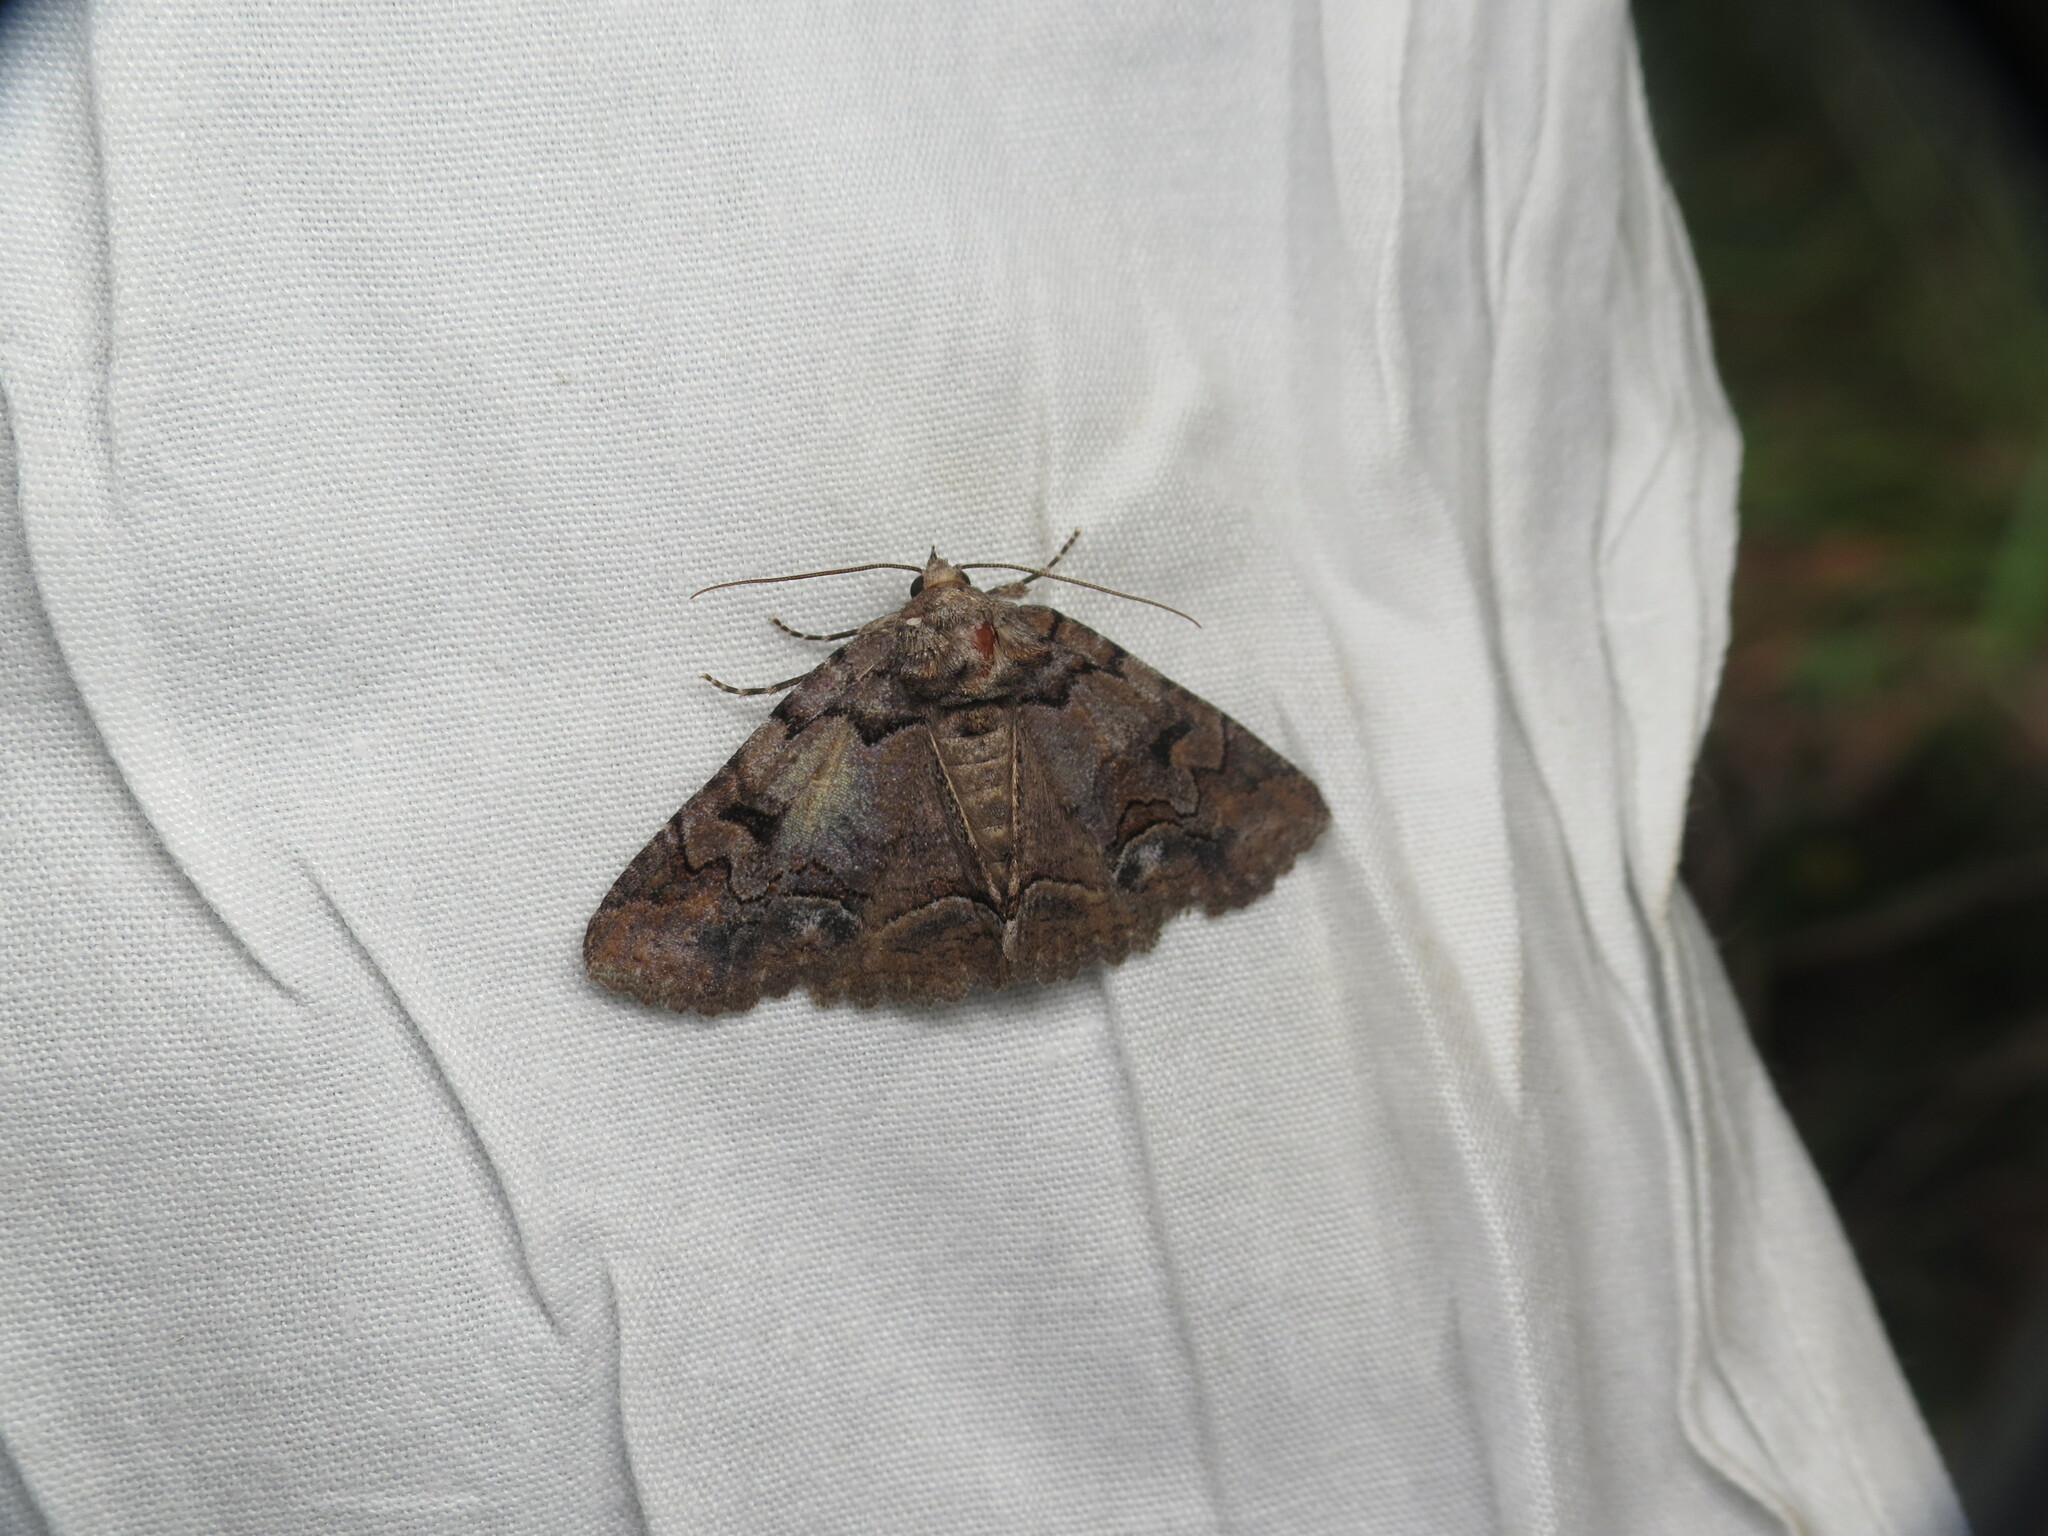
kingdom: Animalia
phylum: Arthropoda
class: Insecta
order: Lepidoptera
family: Erebidae
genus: Zale
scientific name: Zale helata
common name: Brown-spotted zale moth
